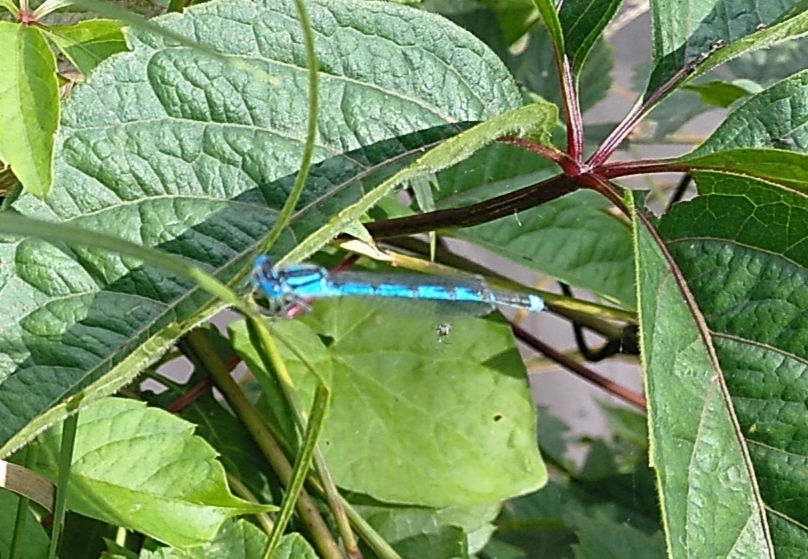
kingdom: Animalia
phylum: Arthropoda
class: Insecta
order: Odonata
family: Coenagrionidae
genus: Erythromma
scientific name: Erythromma lindenii
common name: Blue-eye
